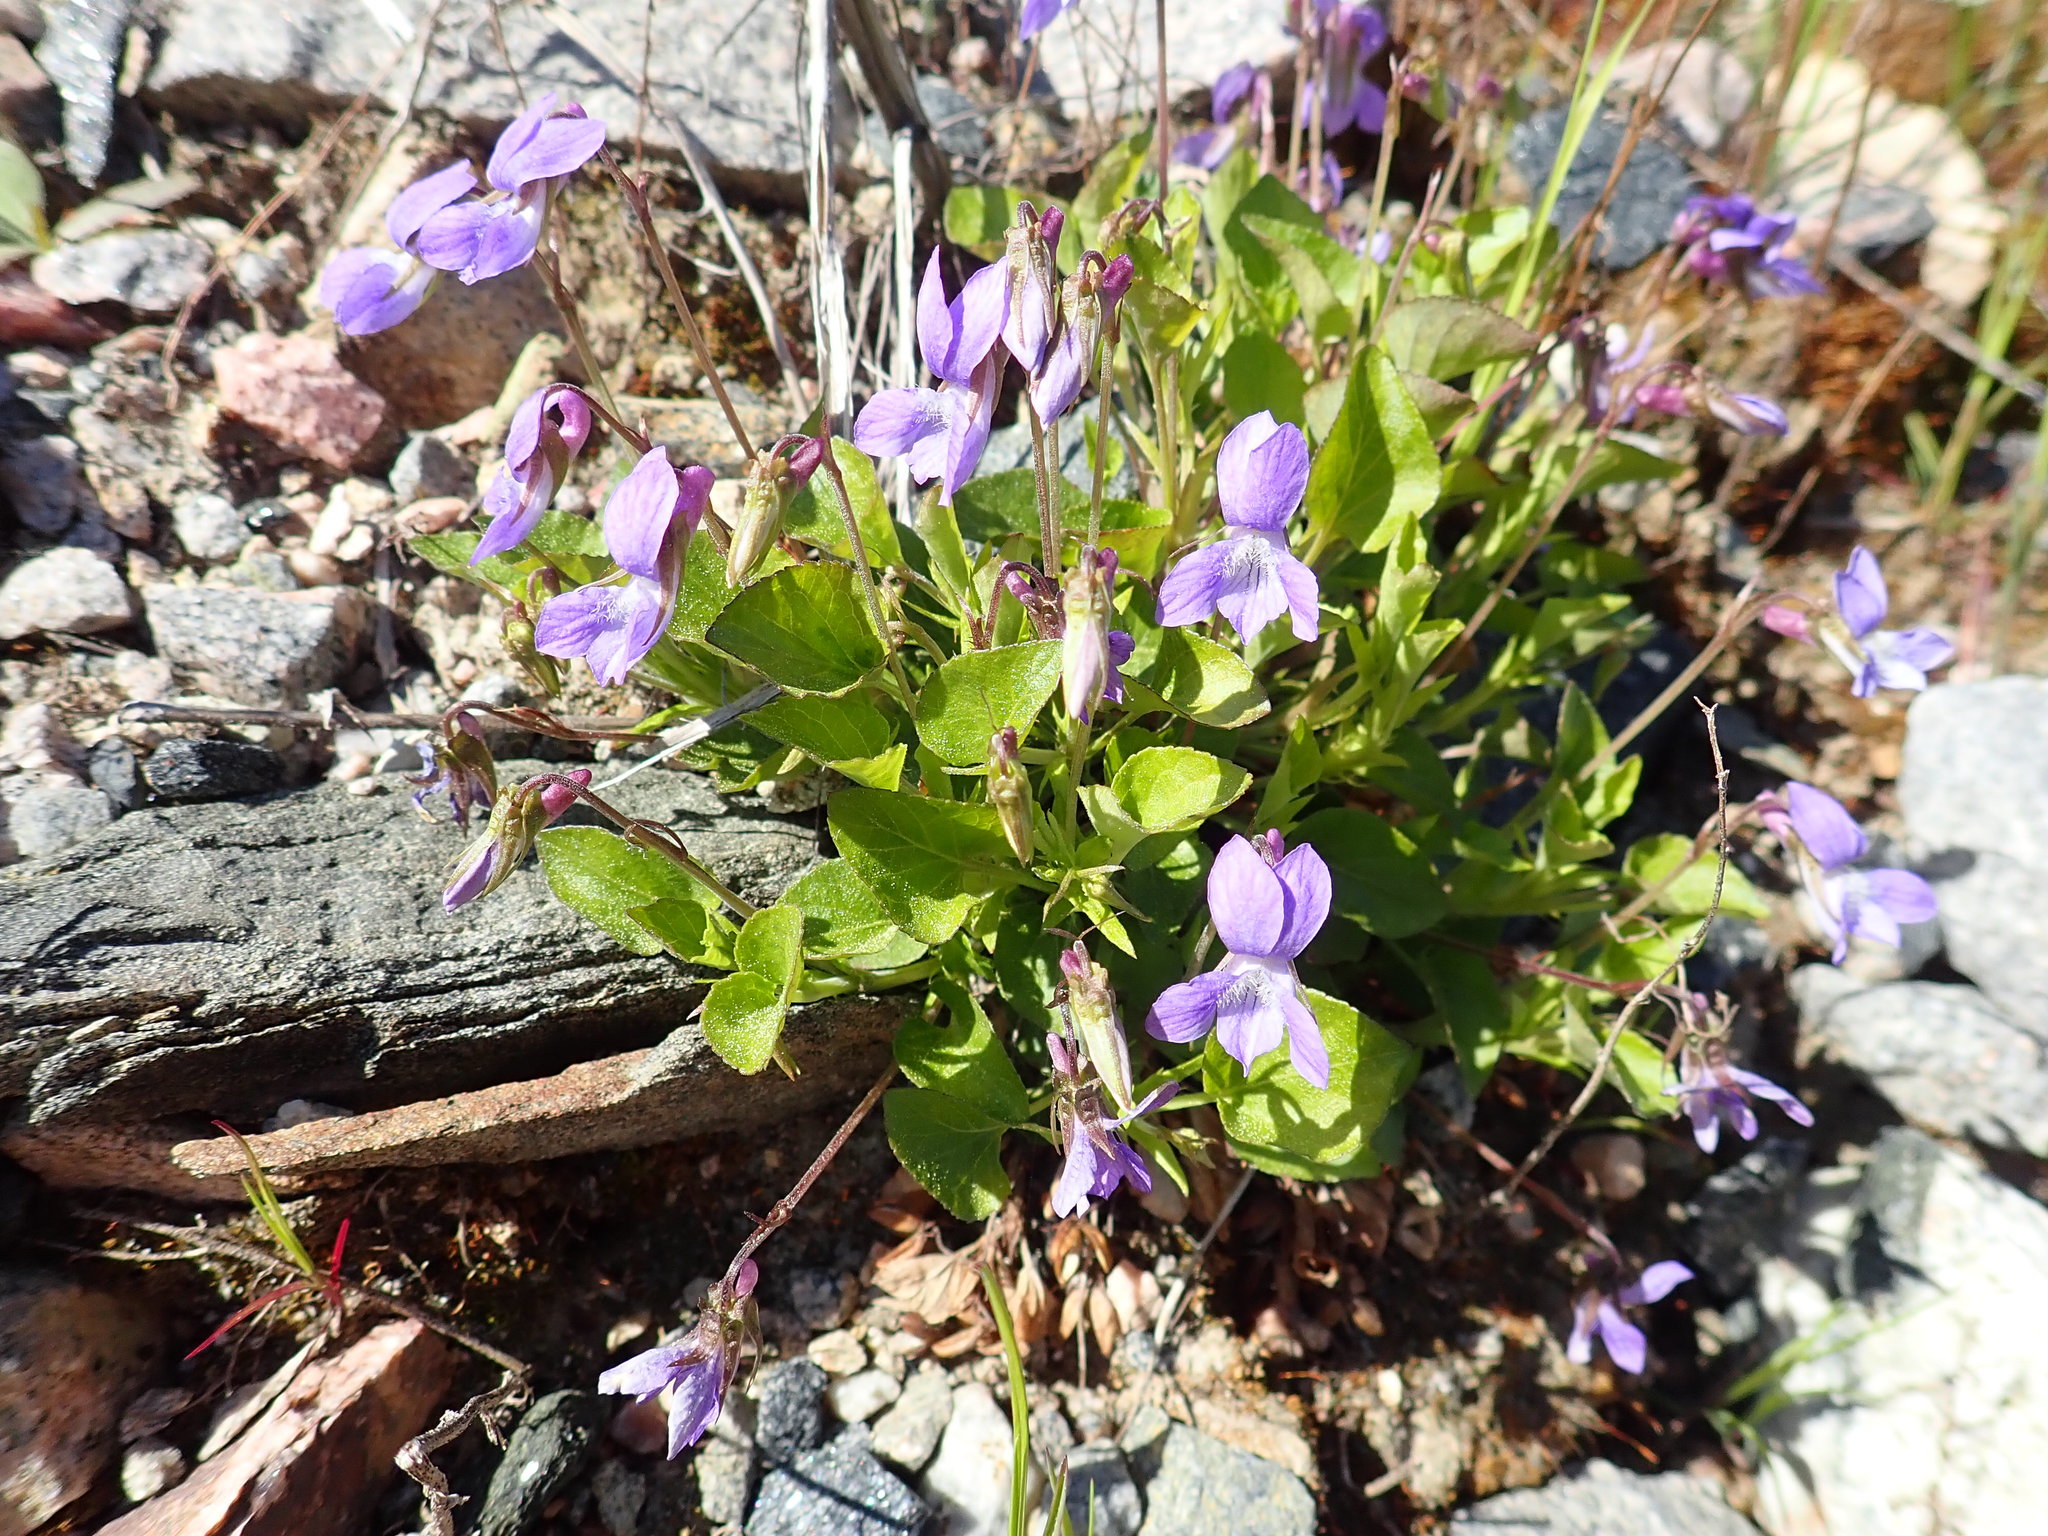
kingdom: Plantae
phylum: Tracheophyta
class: Magnoliopsida
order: Malpighiales
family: Violaceae
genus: Viola
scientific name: Viola adunca
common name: Sand violet
